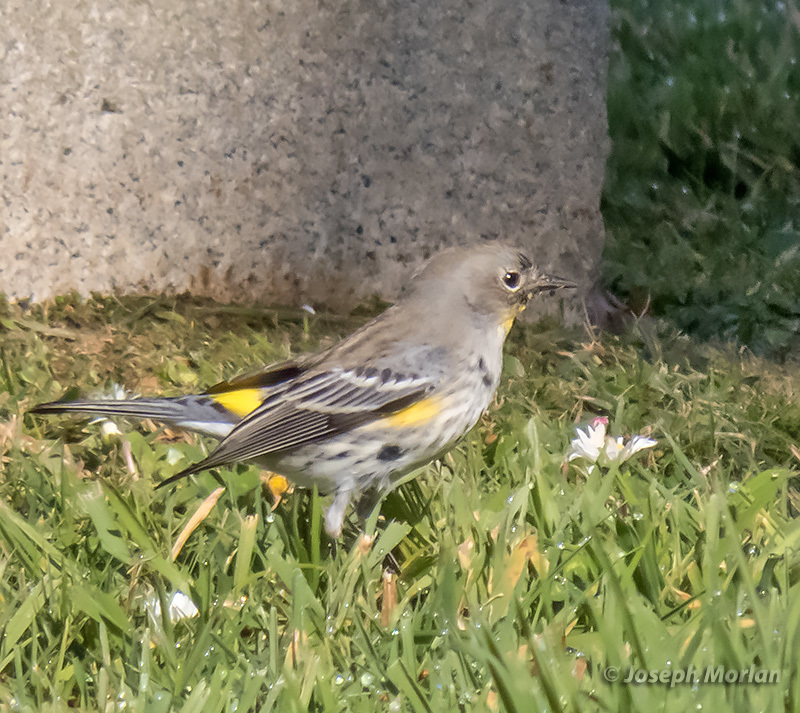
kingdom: Animalia
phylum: Chordata
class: Aves
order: Passeriformes
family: Parulidae
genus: Setophaga
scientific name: Setophaga coronata
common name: Myrtle warbler
